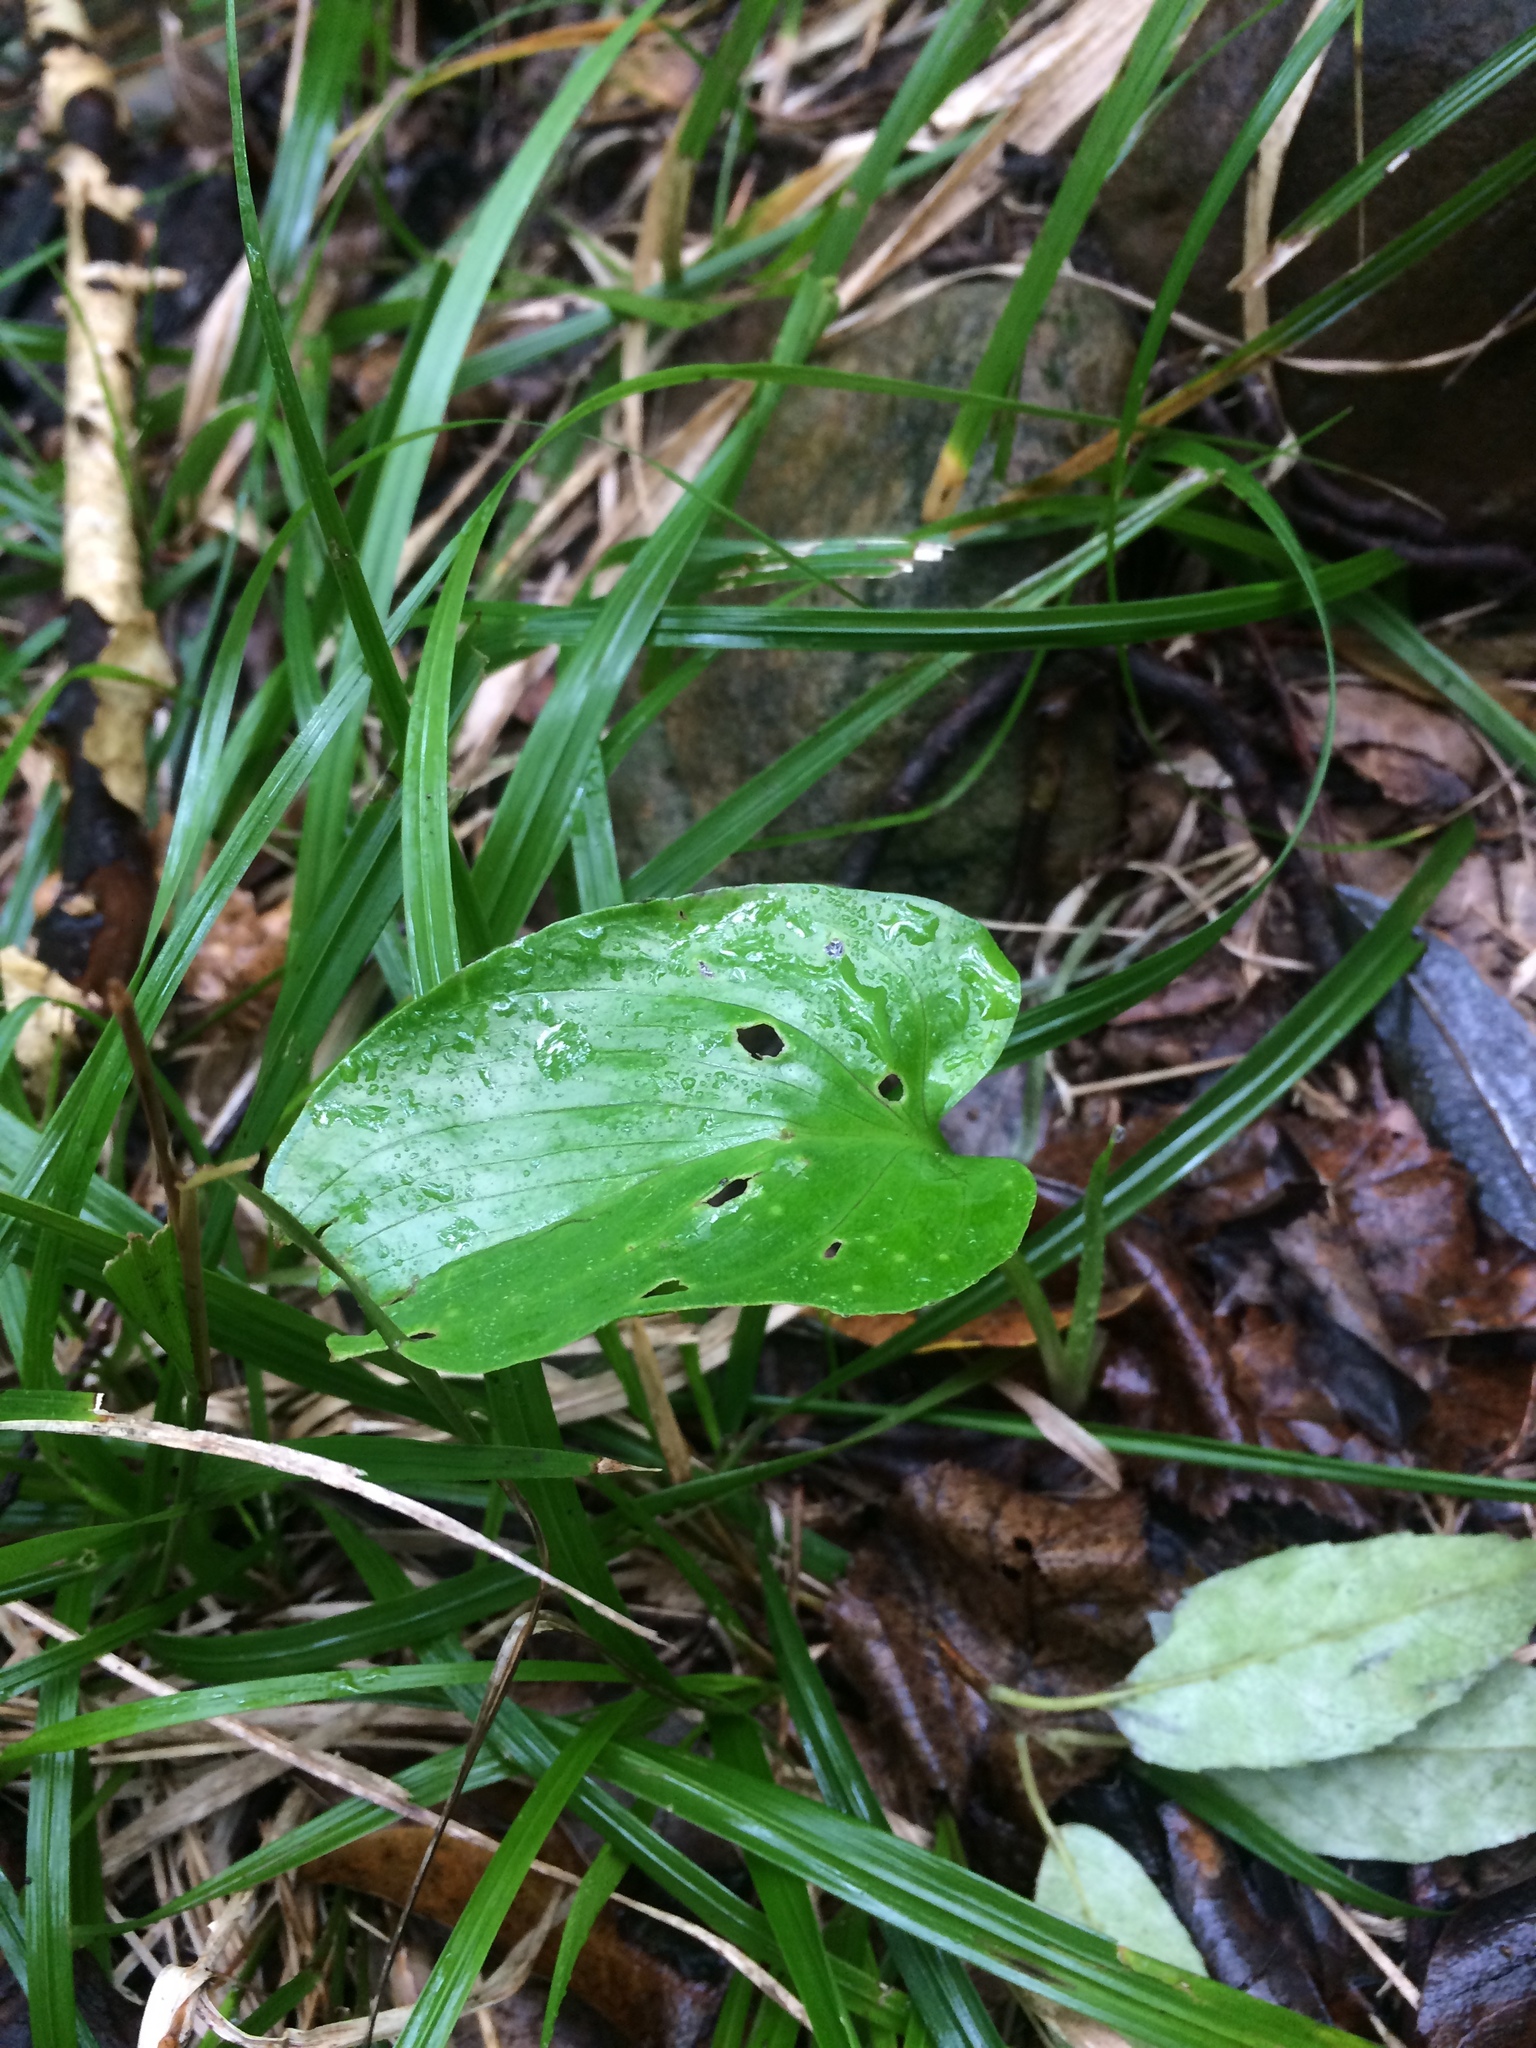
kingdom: Plantae
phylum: Tracheophyta
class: Liliopsida
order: Alismatales
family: Araceae
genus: Zantedeschia
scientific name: Zantedeschia aethiopica
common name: Altar-lily
